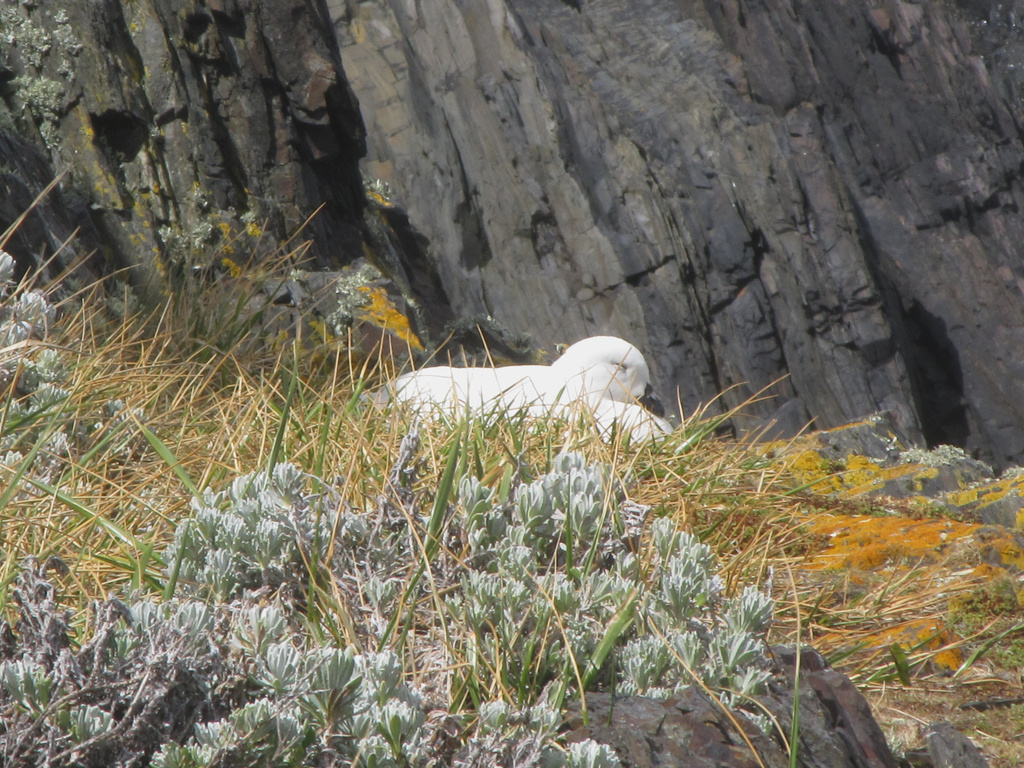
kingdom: Animalia
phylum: Chordata
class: Aves
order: Anseriformes
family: Anatidae
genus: Chloephaga
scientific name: Chloephaga hybrida
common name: Kelp goose
